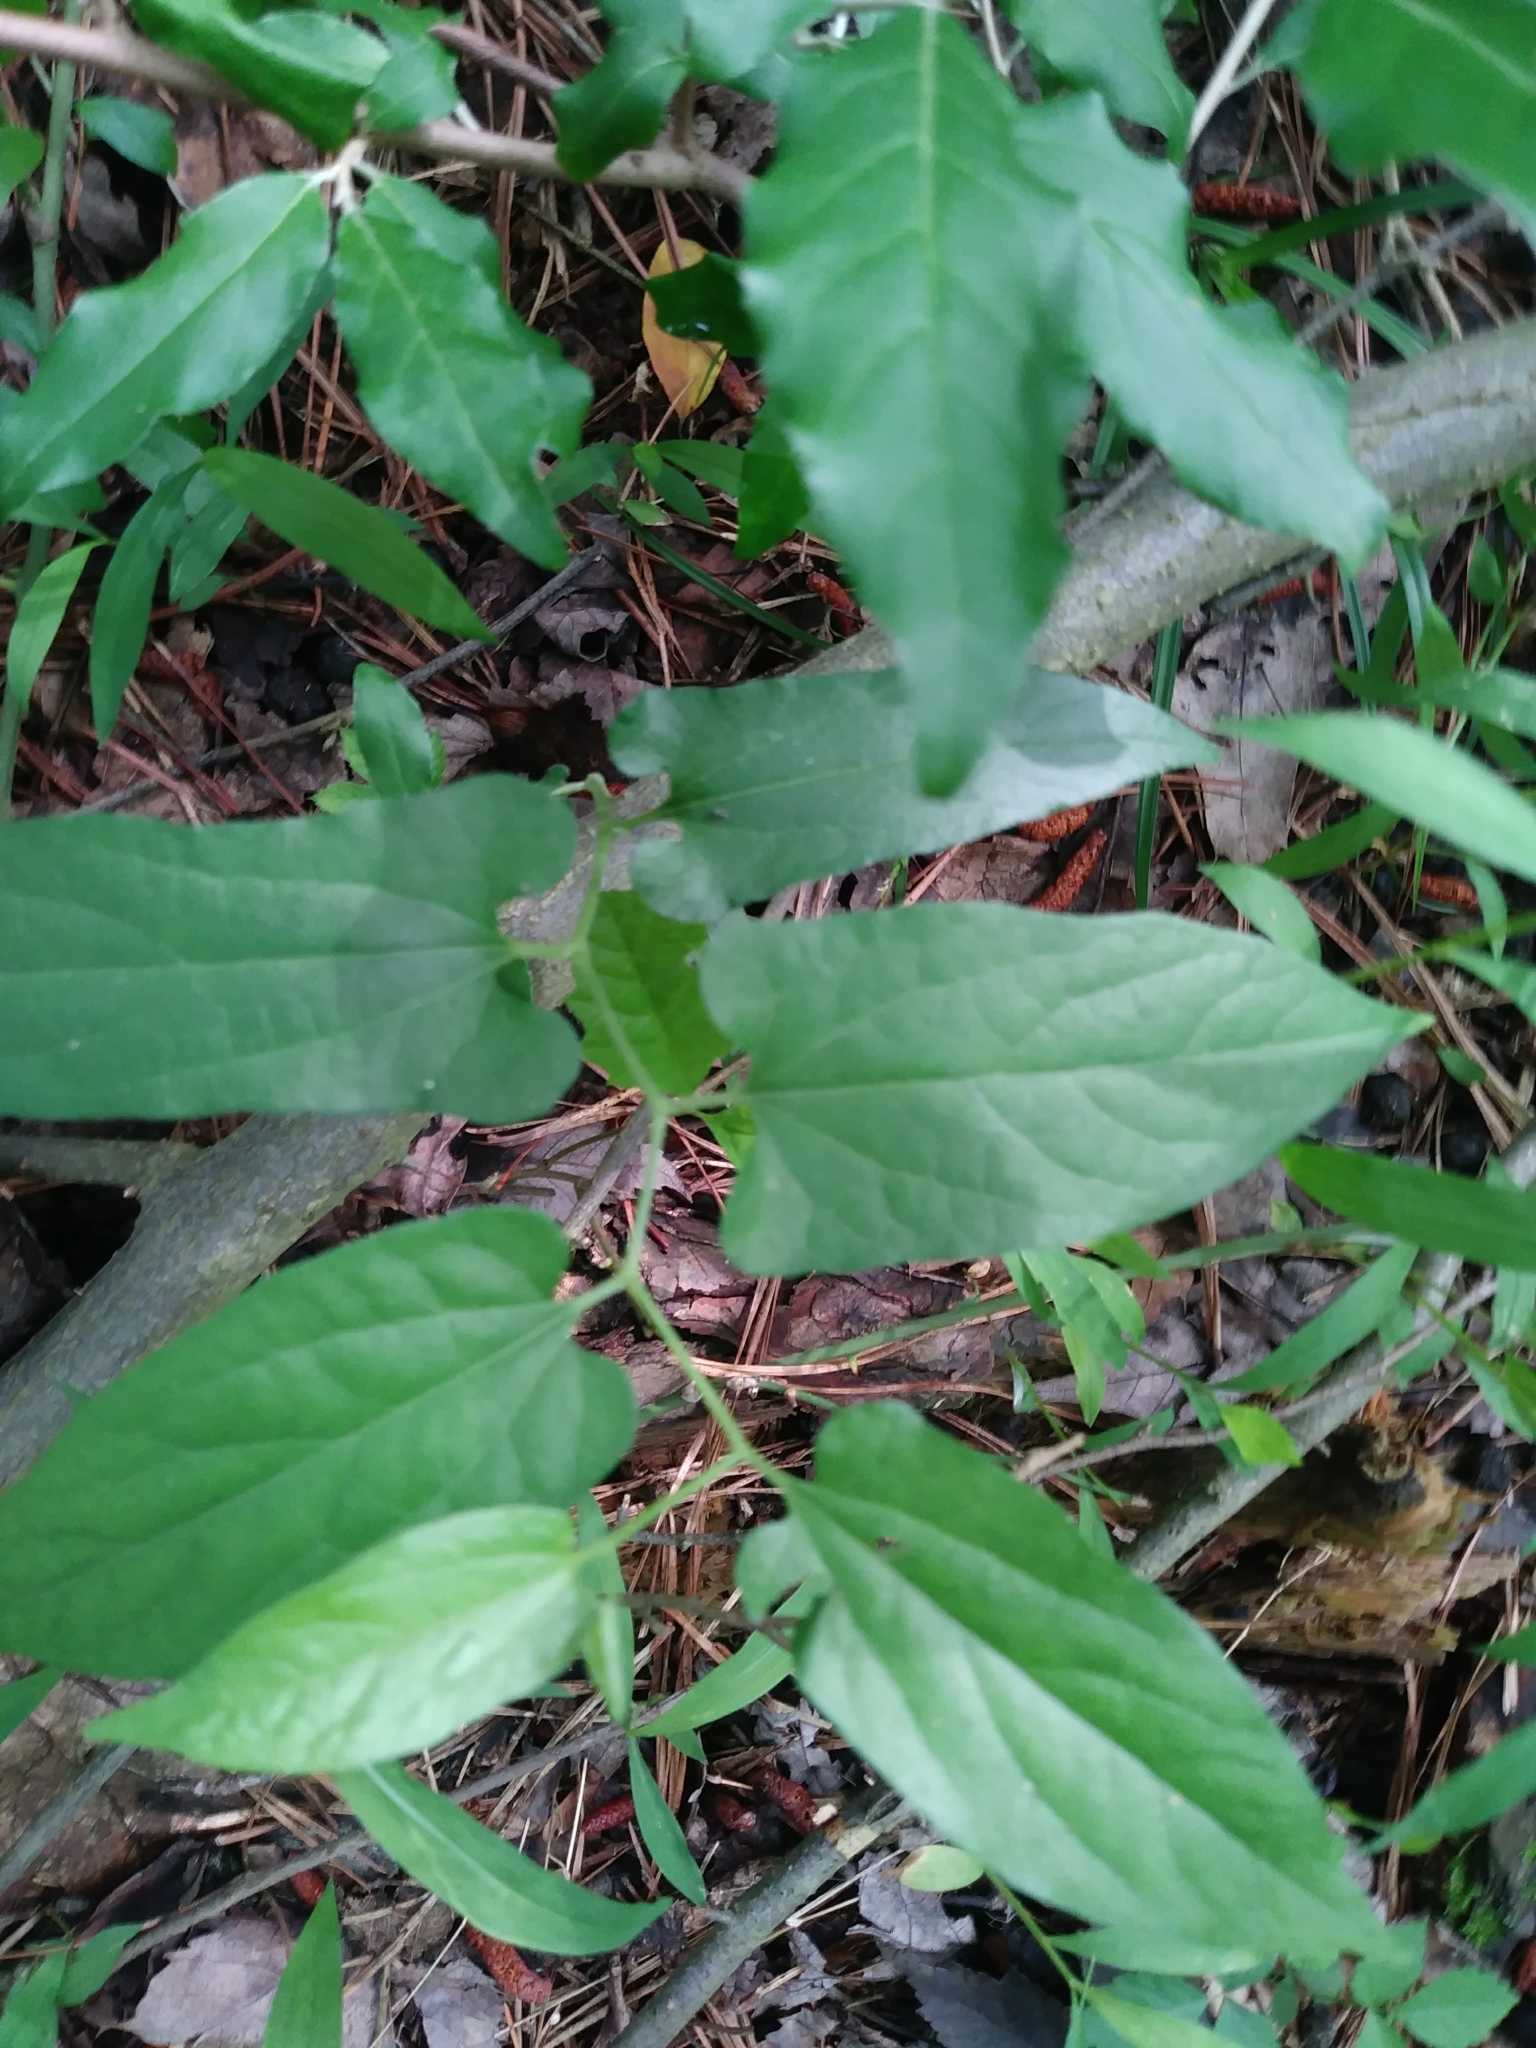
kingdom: Plantae
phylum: Tracheophyta
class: Magnoliopsida
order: Piperales
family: Aristolochiaceae
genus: Endodeca
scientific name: Endodeca serpentaria
